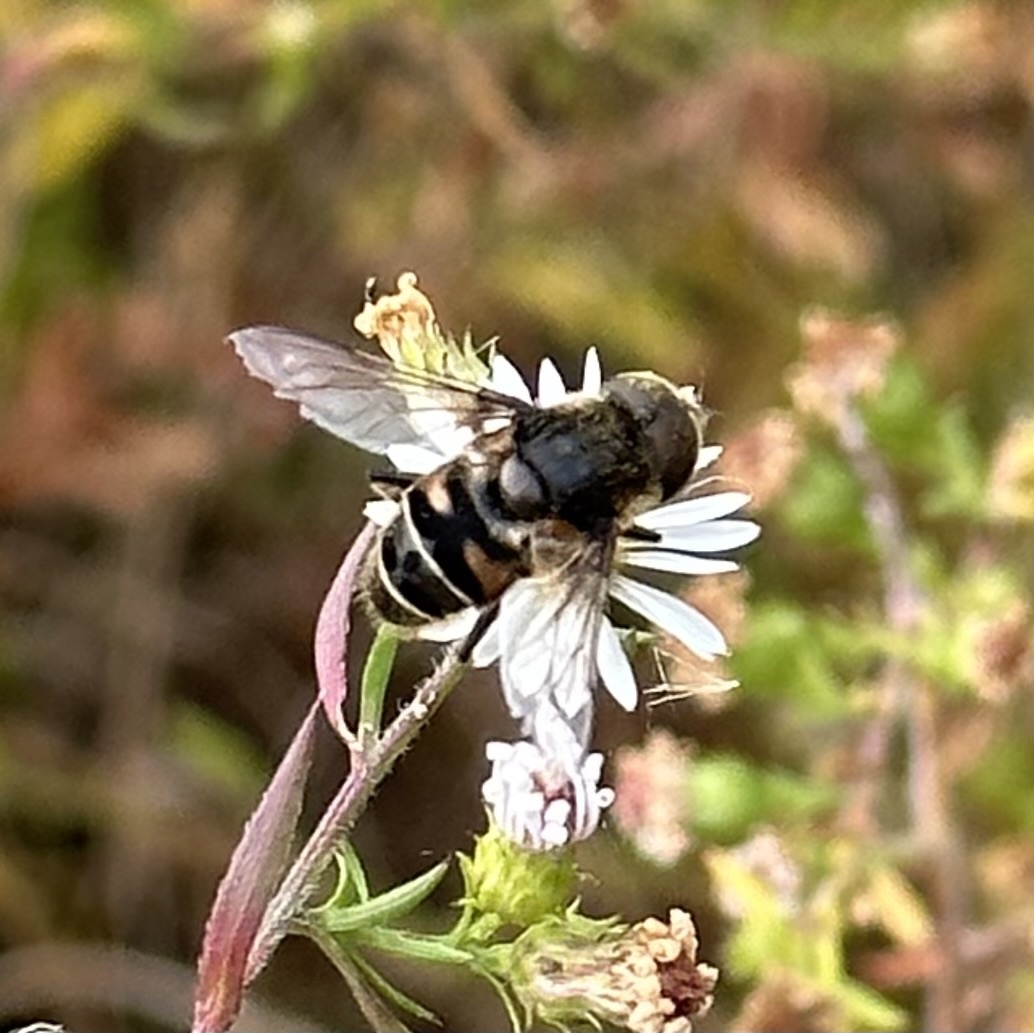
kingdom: Animalia
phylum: Arthropoda
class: Insecta
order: Diptera
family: Syrphidae
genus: Eristalis
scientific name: Eristalis dimidiata
